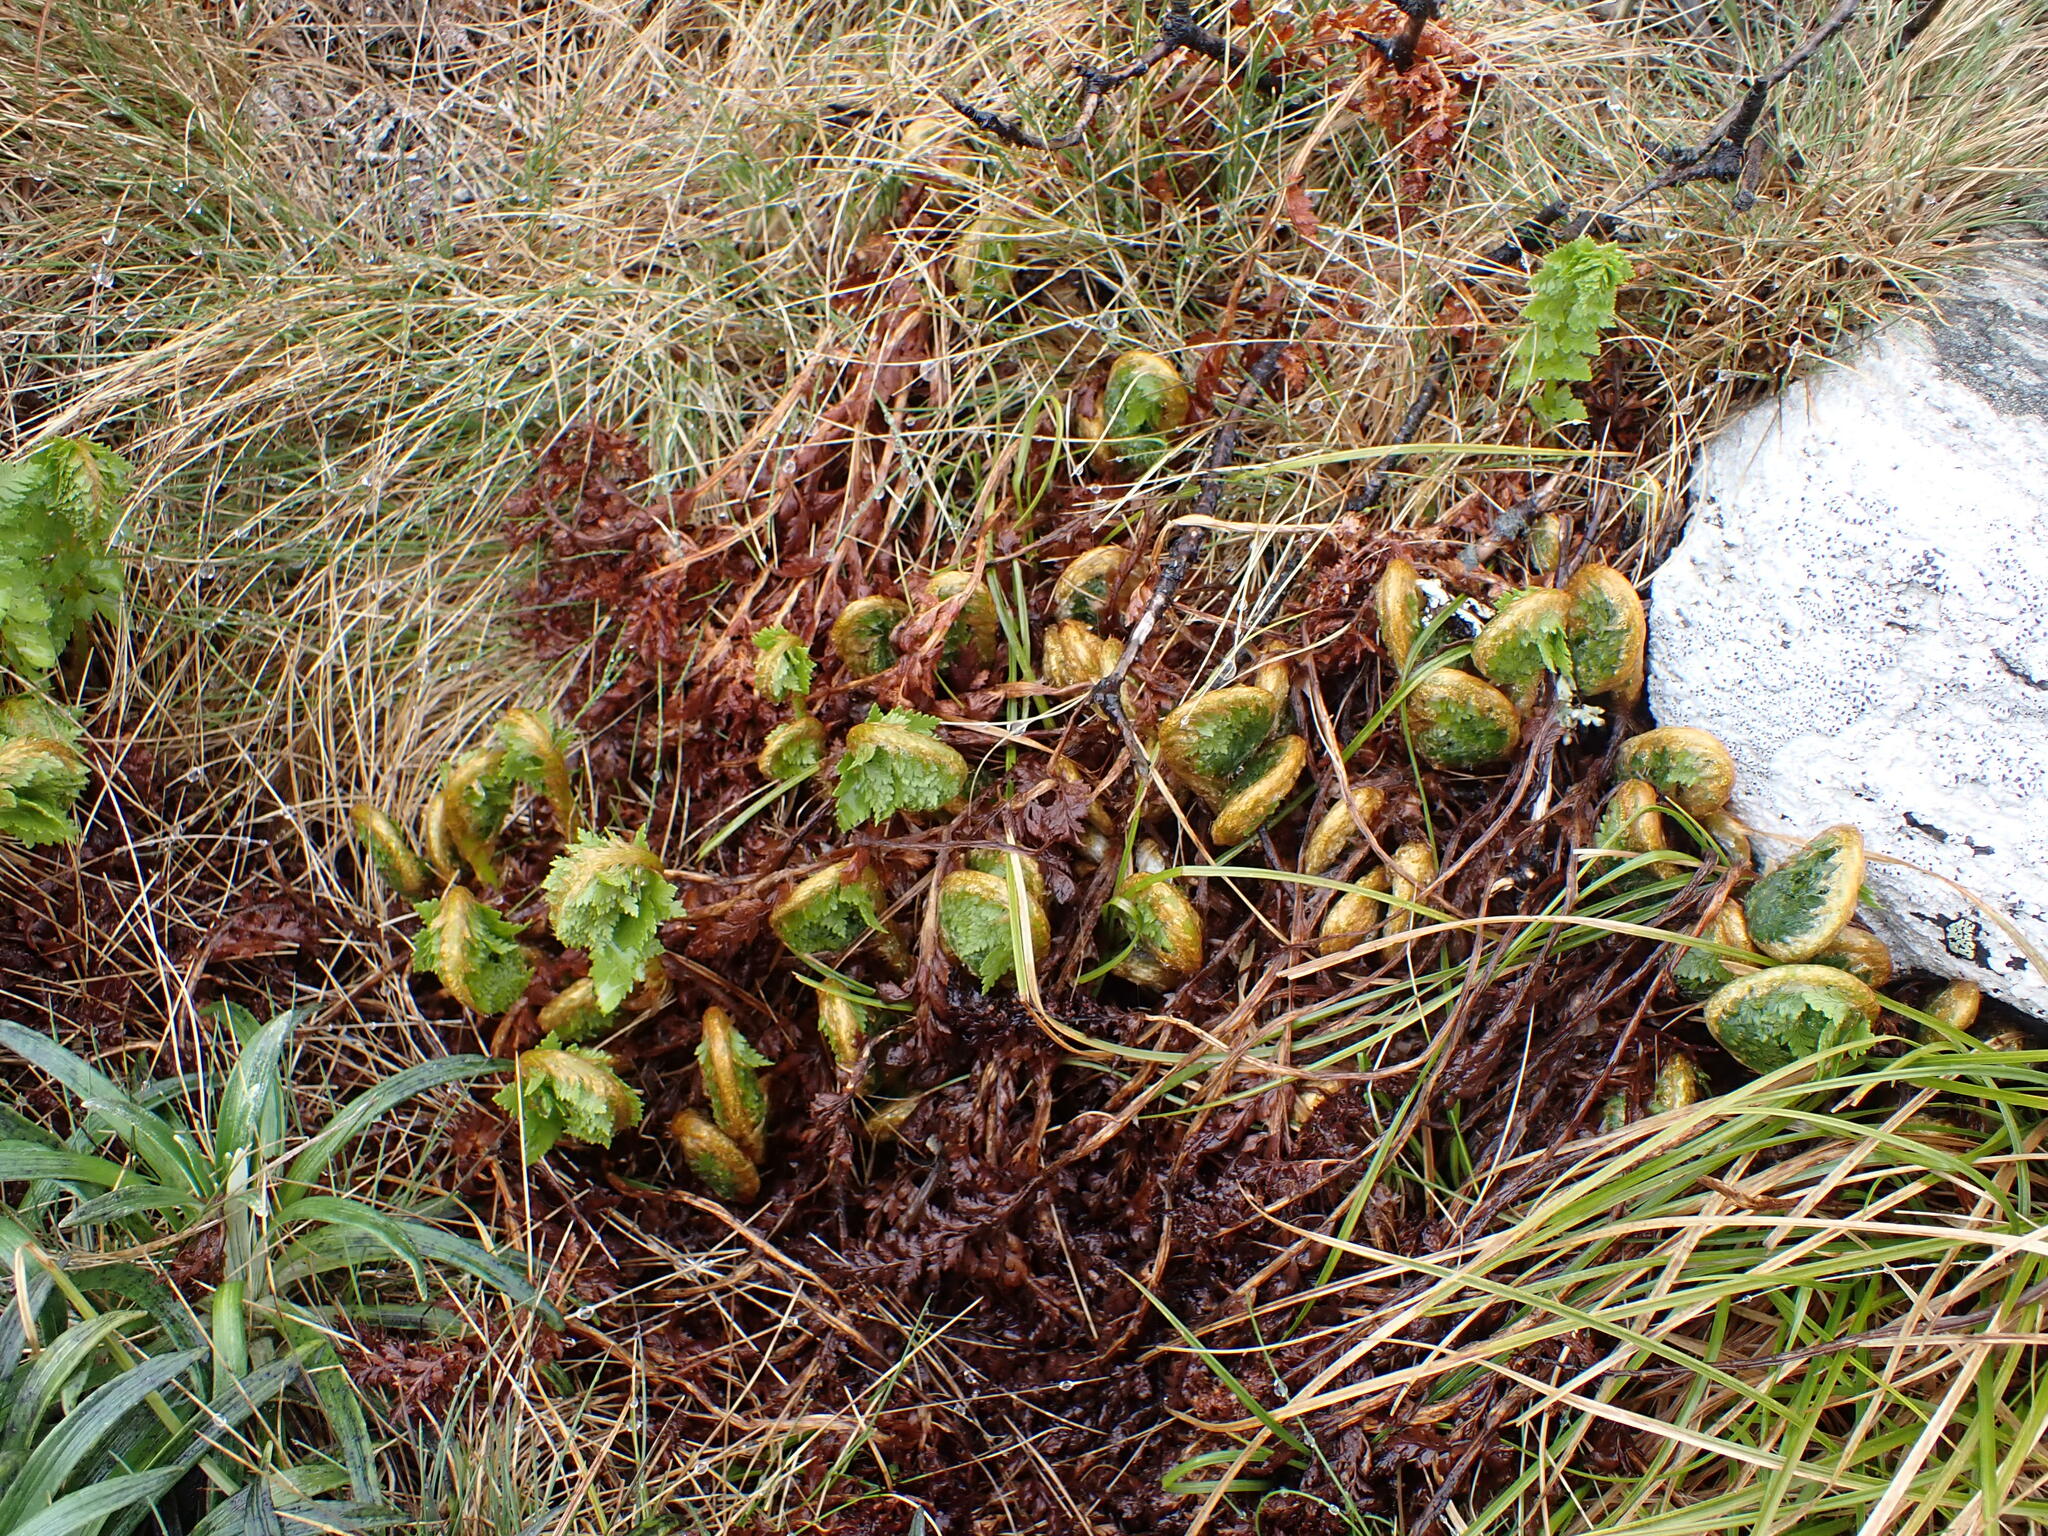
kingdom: Plantae
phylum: Tracheophyta
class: Polypodiopsida
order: Polypodiales
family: Dryopteridaceae
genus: Polystichum
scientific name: Polystichum cystostegia
